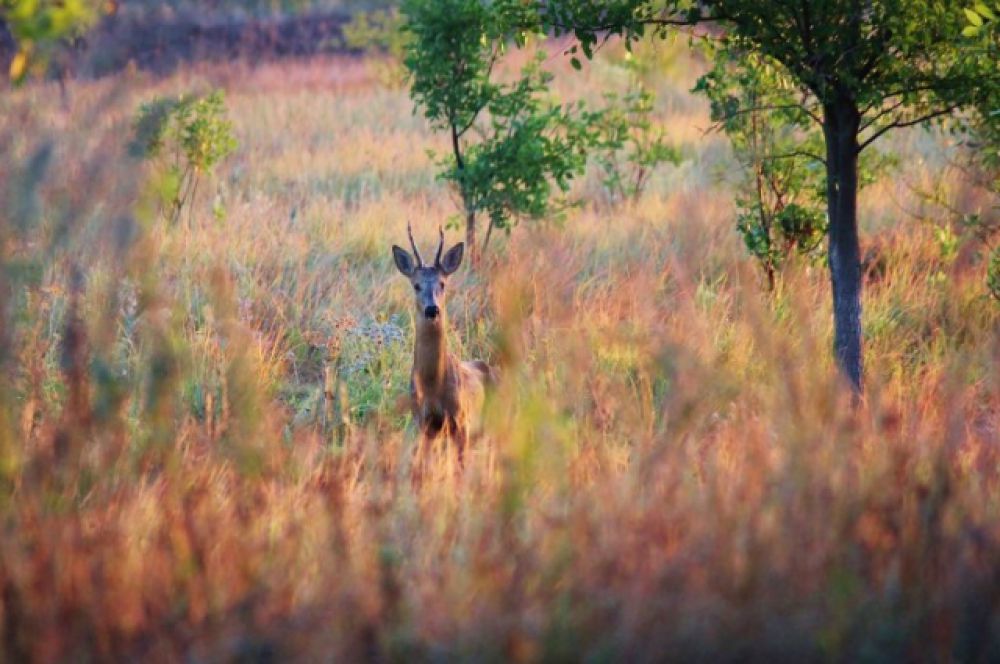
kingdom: Animalia
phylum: Chordata
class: Mammalia
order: Artiodactyla
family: Cervidae
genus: Capreolus
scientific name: Capreolus pygargus
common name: Siberian roe
